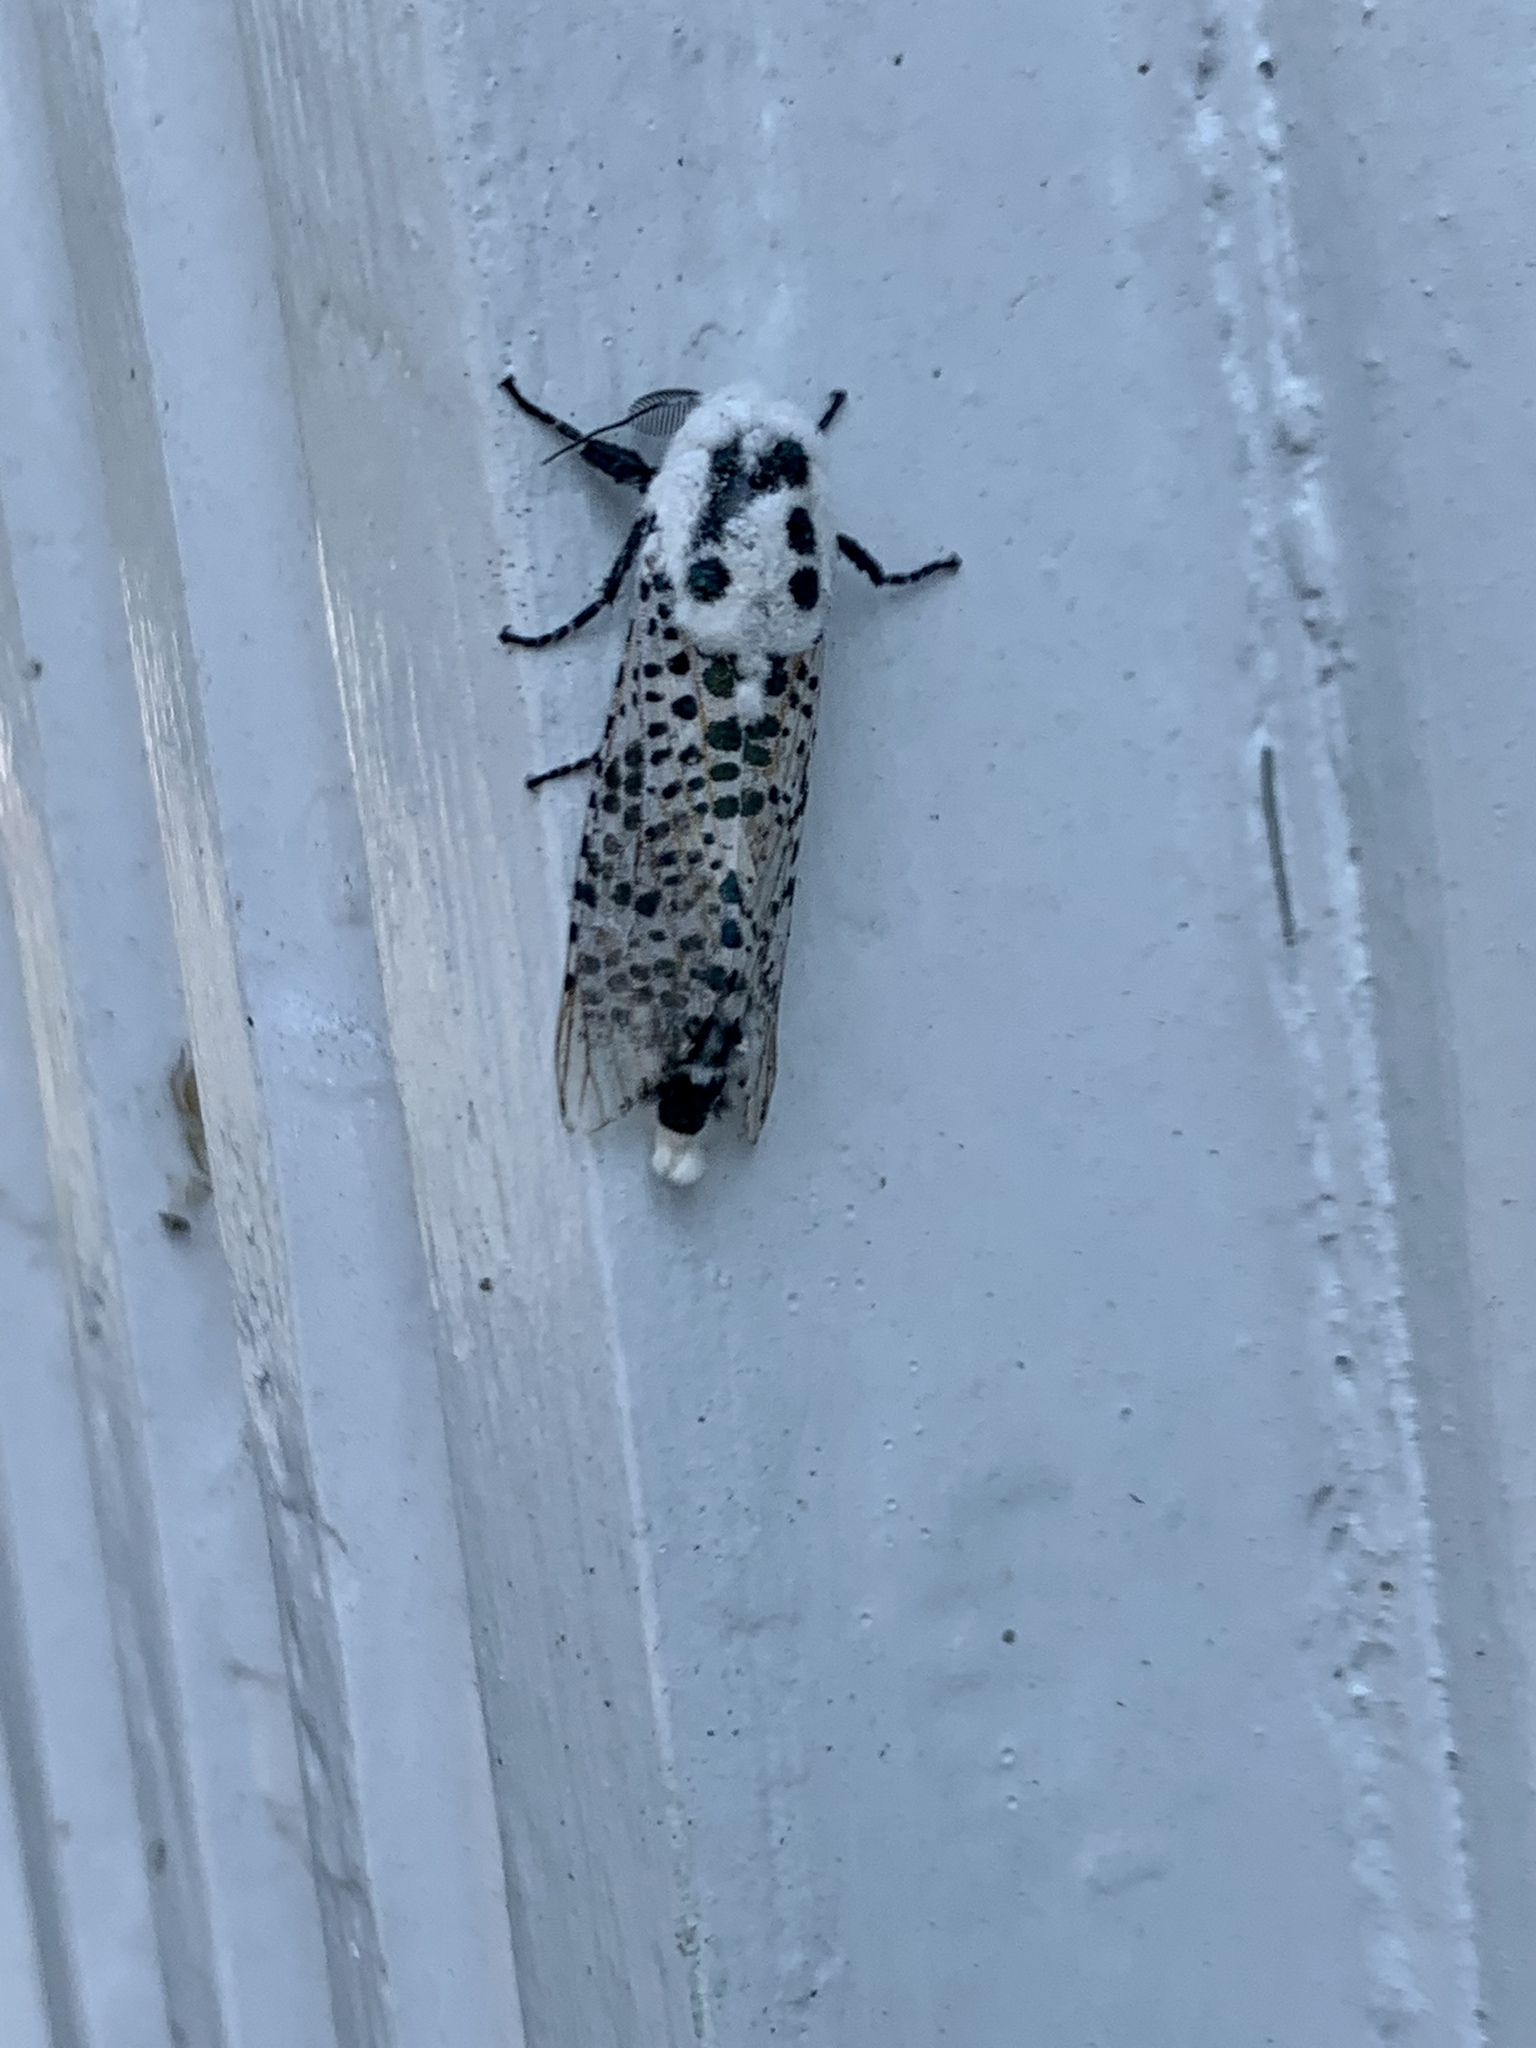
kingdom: Animalia
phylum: Arthropoda
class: Insecta
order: Lepidoptera
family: Cossidae
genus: Zeuzera
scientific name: Zeuzera pyrina
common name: Leopard moth
